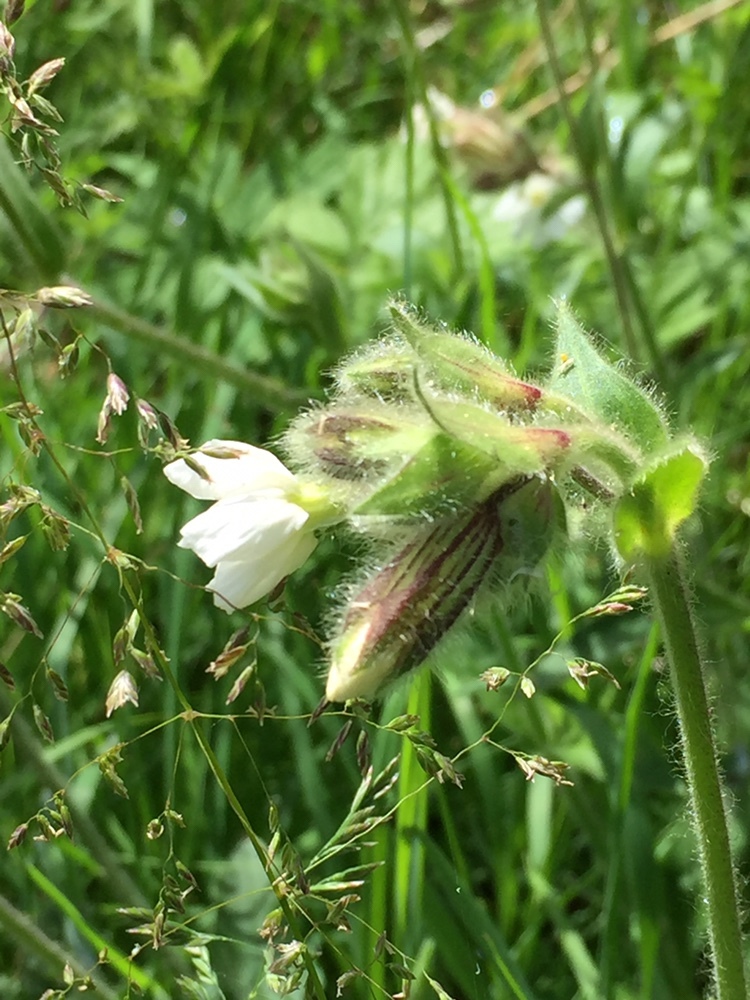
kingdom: Plantae
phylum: Tracheophyta
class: Magnoliopsida
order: Caryophyllales
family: Caryophyllaceae
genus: Silene
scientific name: Silene latifolia
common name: White campion
